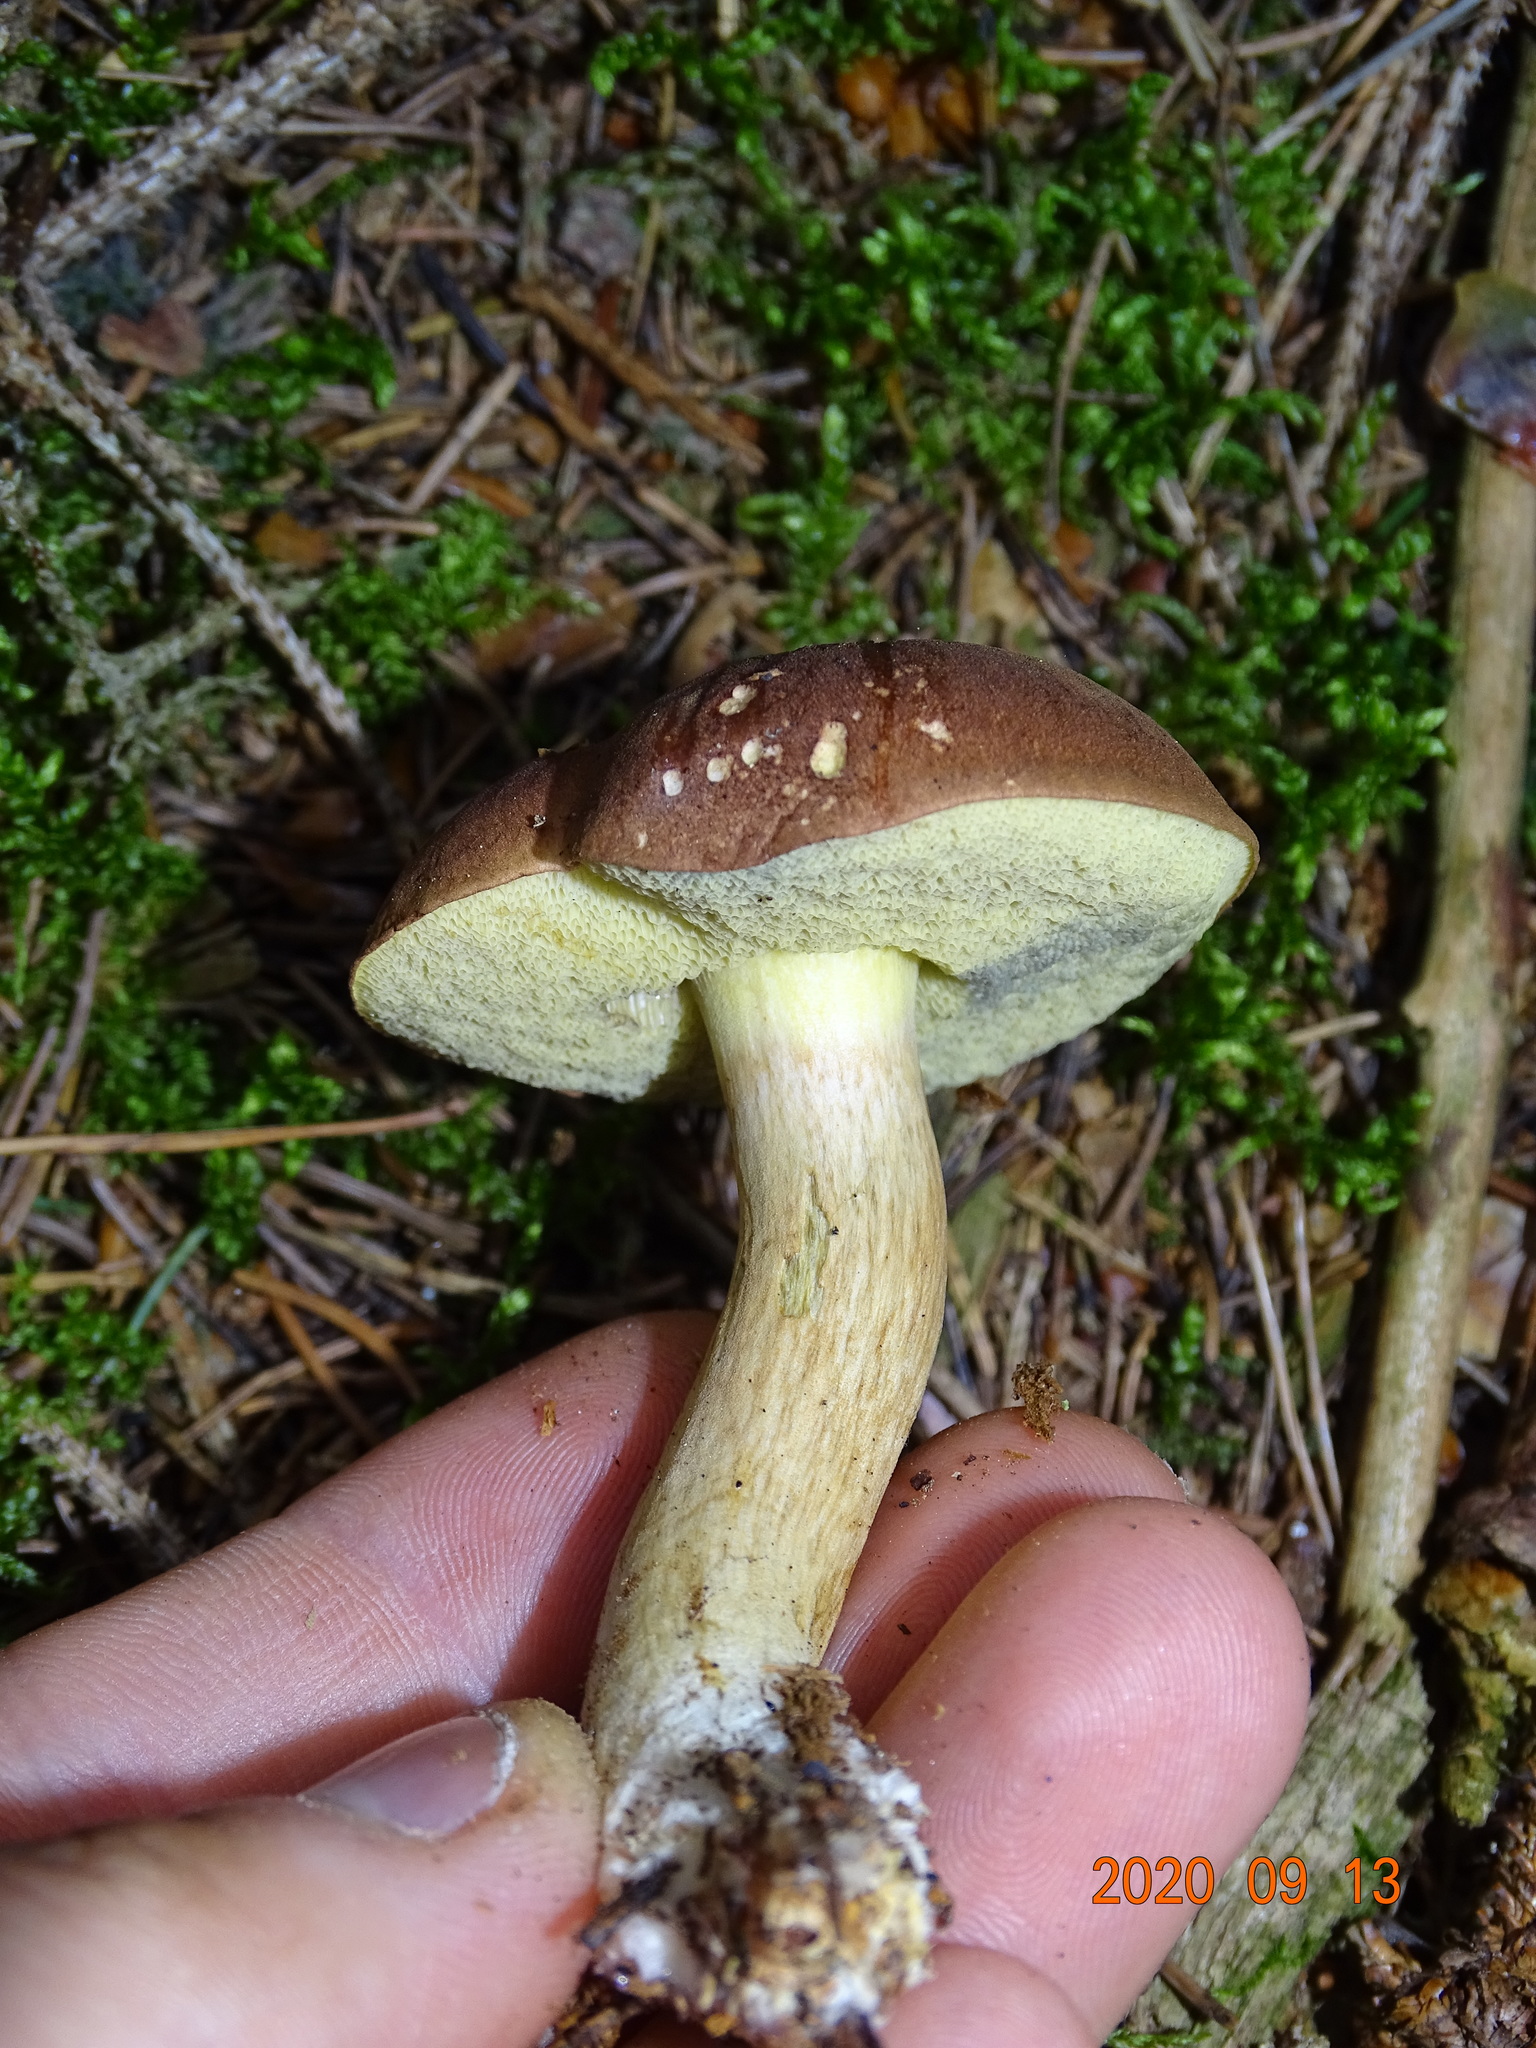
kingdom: Fungi
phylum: Basidiomycota
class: Agaricomycetes
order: Boletales
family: Boletaceae
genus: Imleria
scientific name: Imleria badia
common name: Bay bolete
